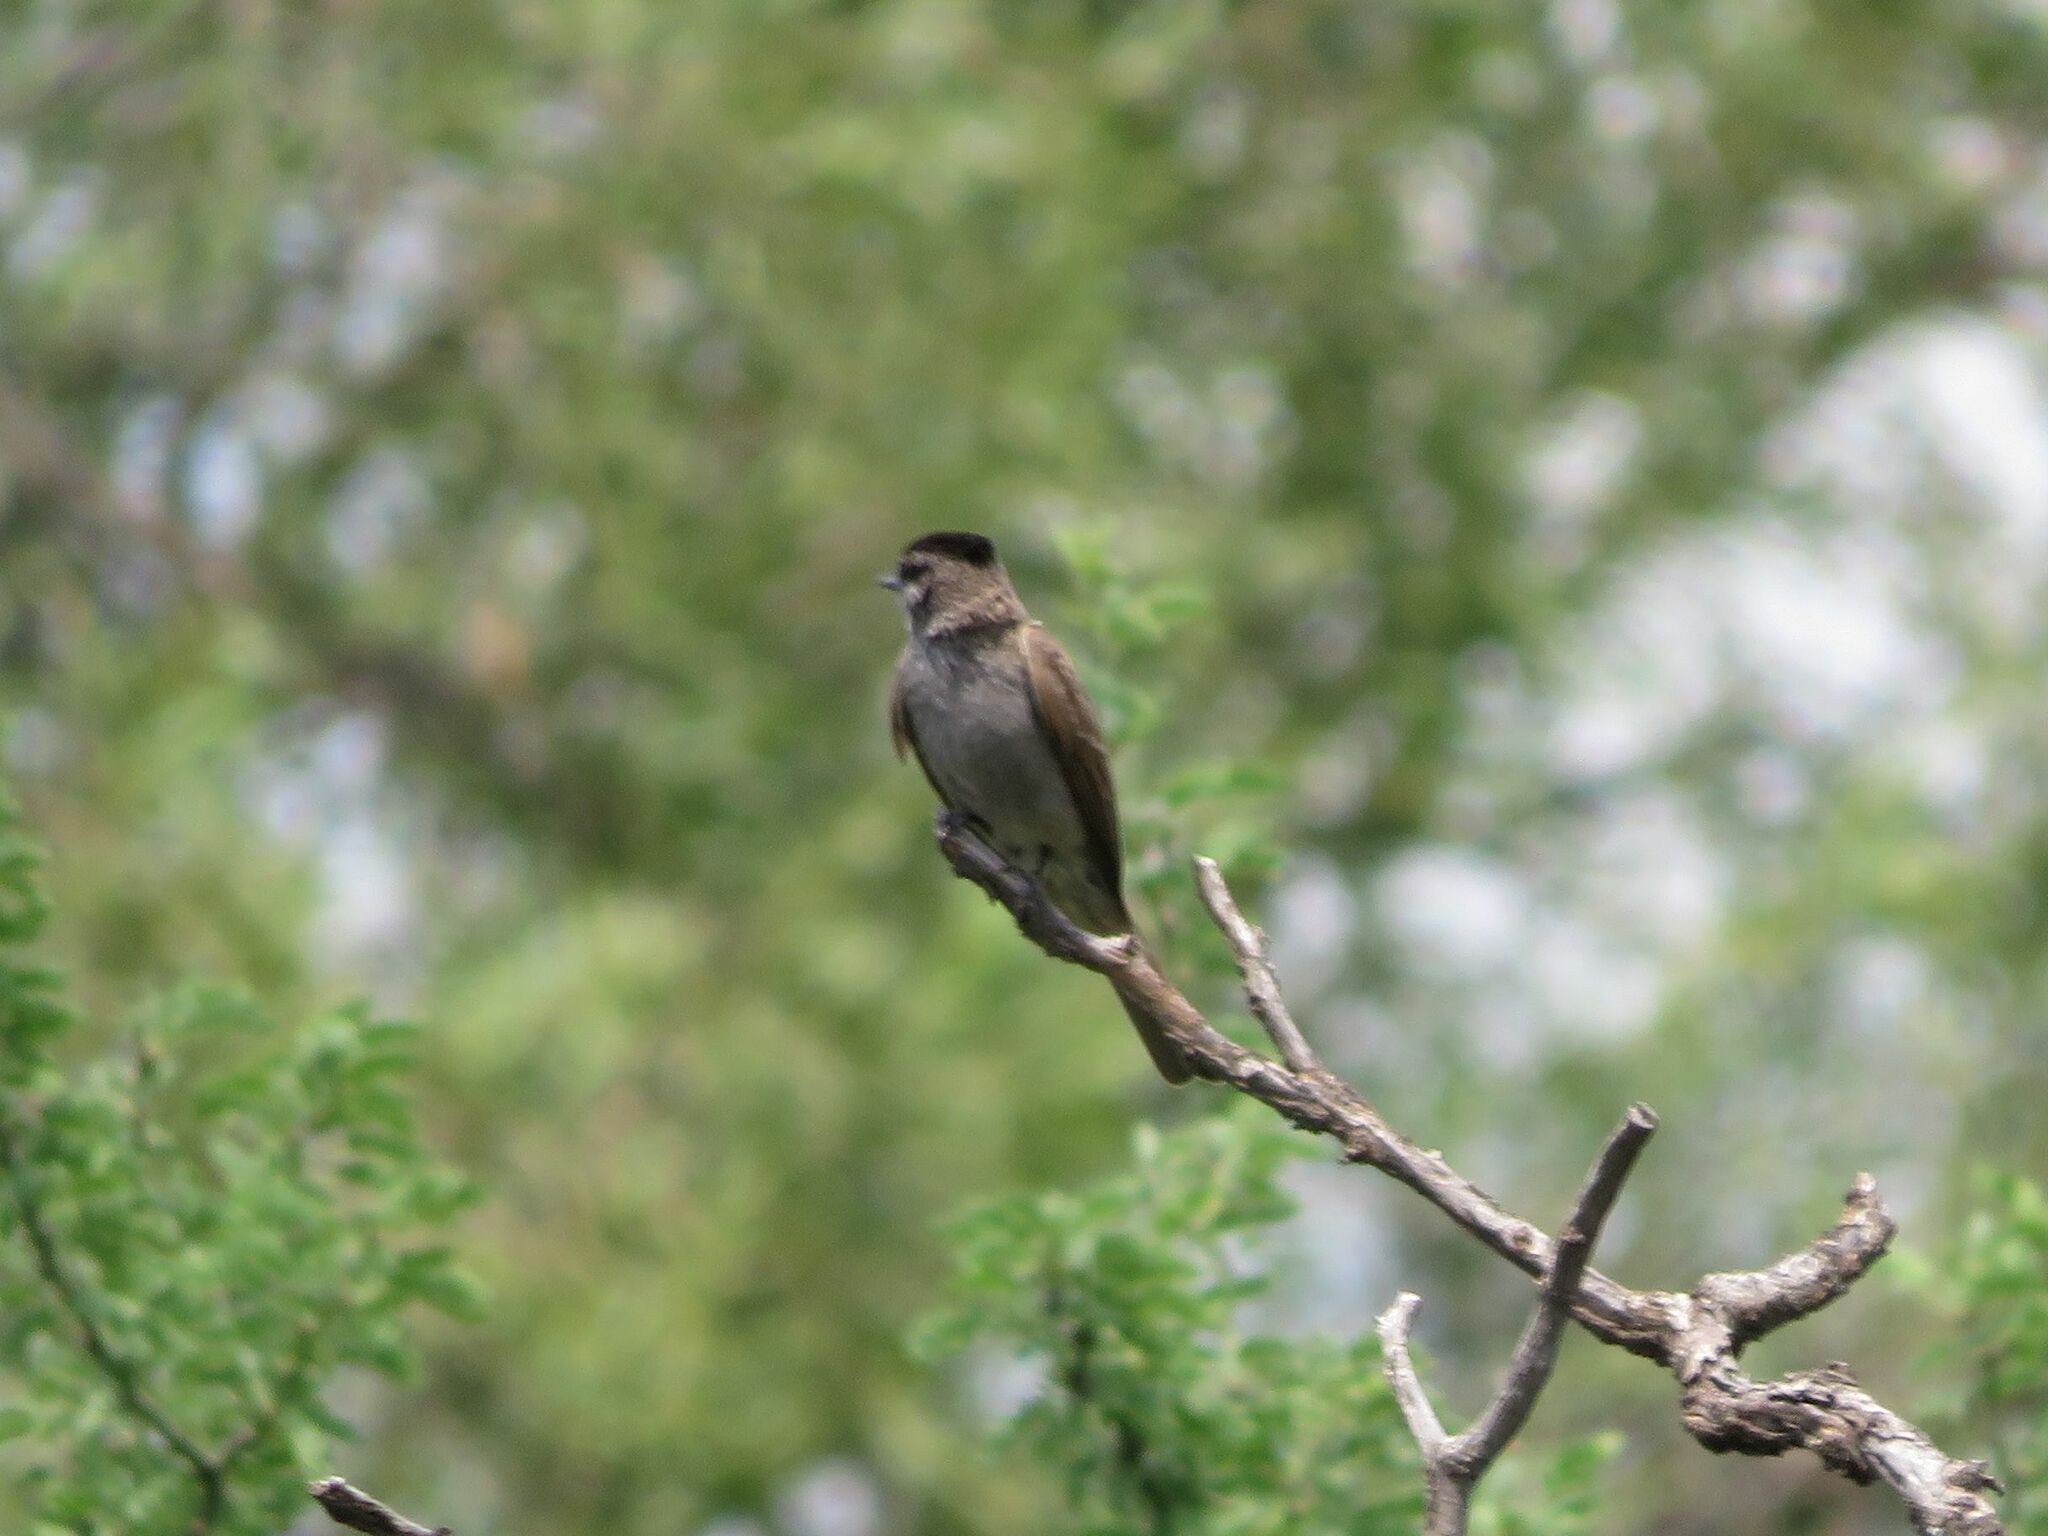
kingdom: Animalia
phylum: Chordata
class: Aves
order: Passeriformes
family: Tyrannidae
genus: Empidonomus
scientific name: Empidonomus aurantioatrocristatus
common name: Crowned slaty flycatcher
